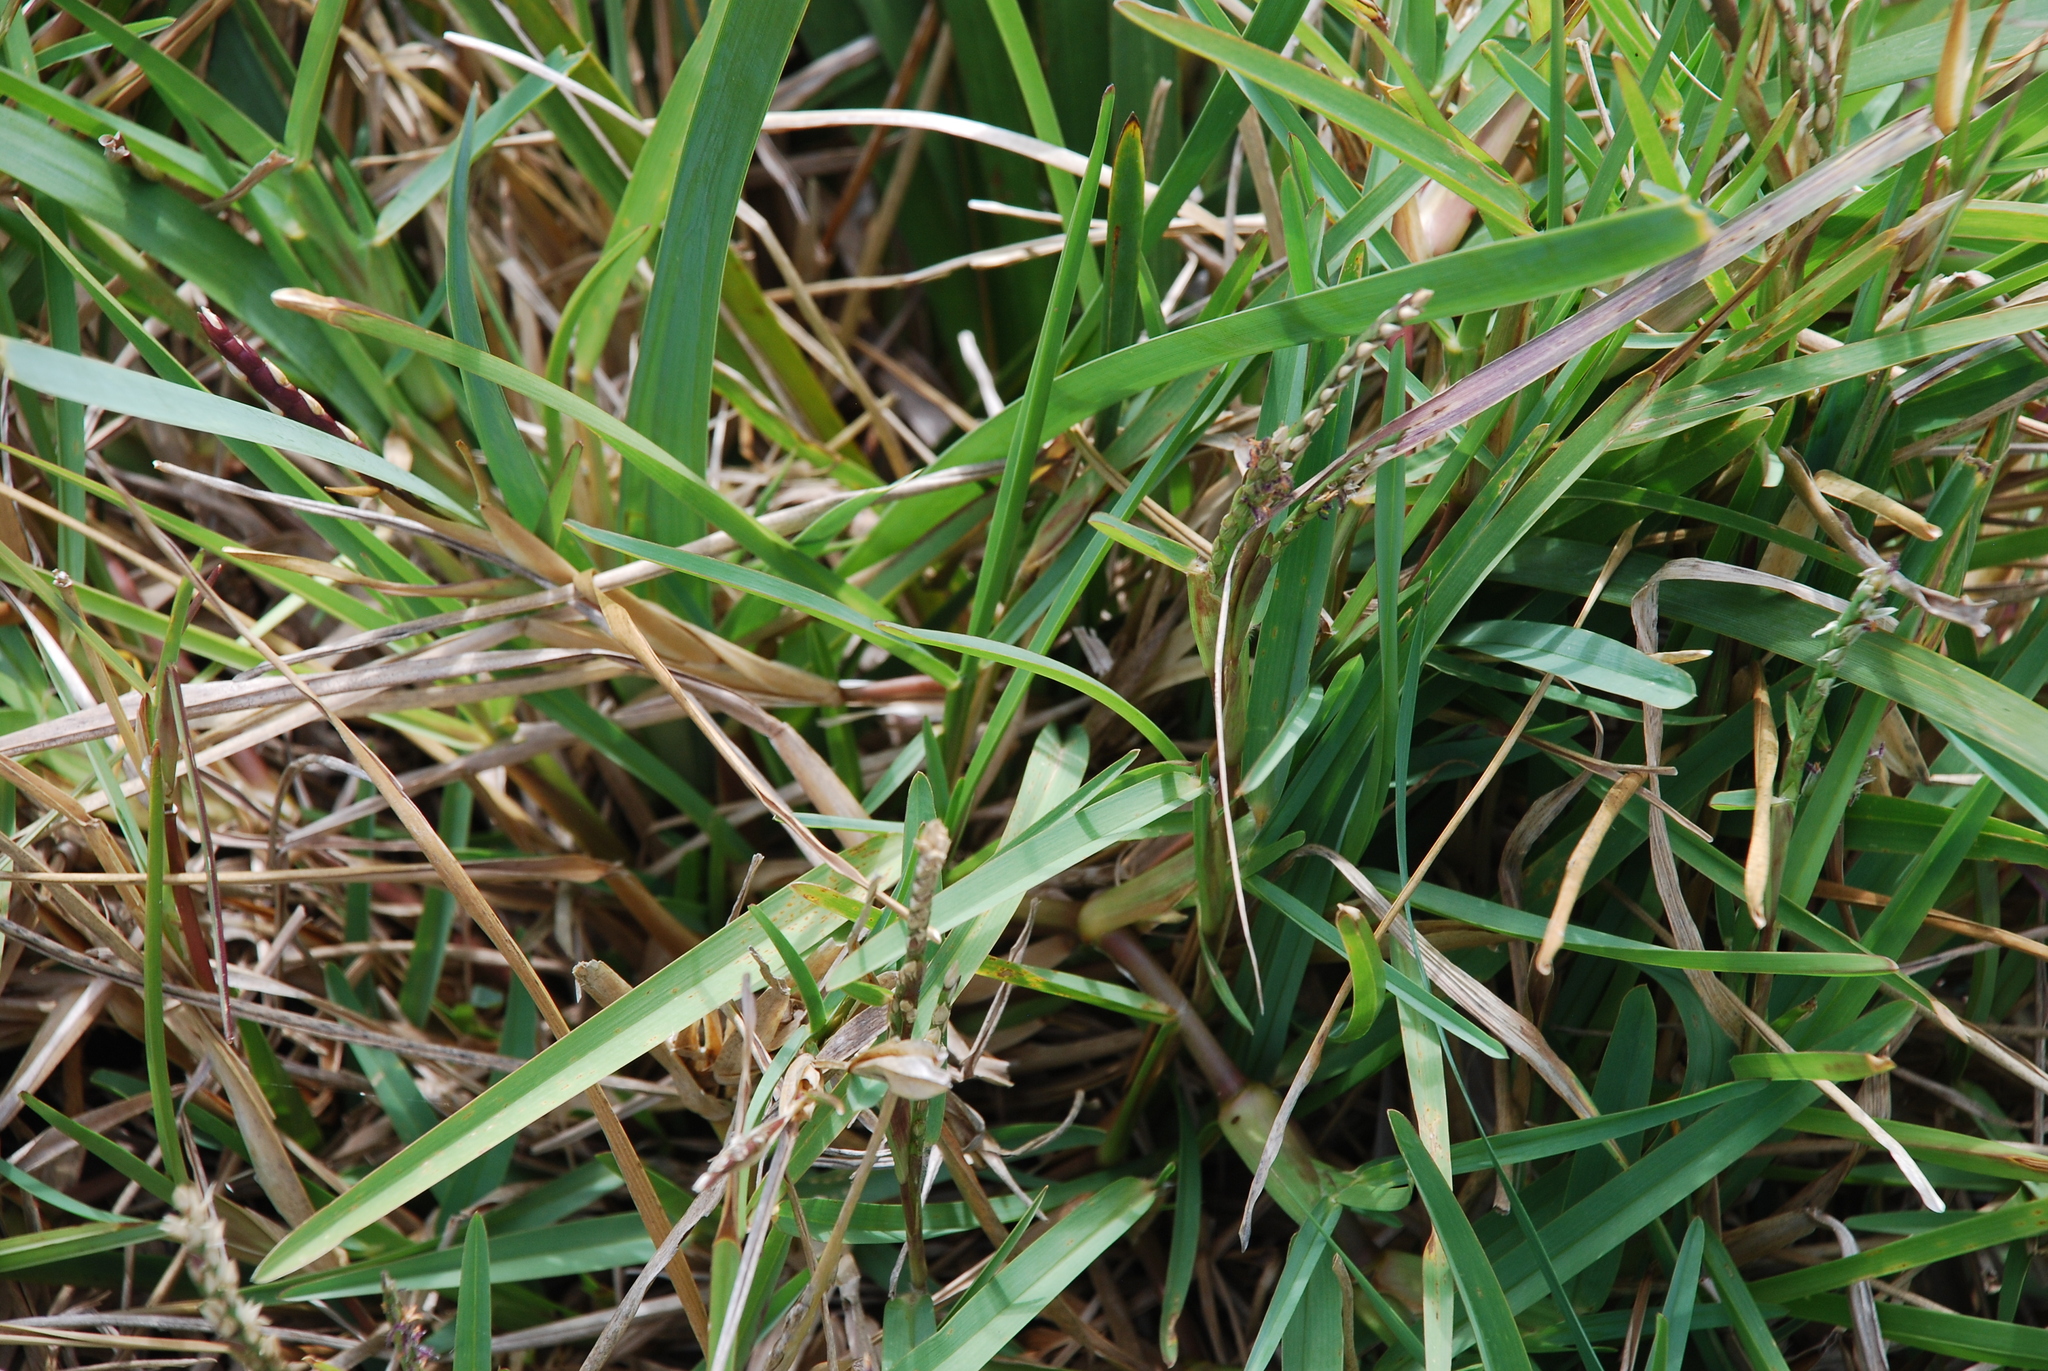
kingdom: Plantae
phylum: Tracheophyta
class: Liliopsida
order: Poales
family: Poaceae
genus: Stenotaphrum
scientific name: Stenotaphrum secundatum
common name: St. augustine grass
